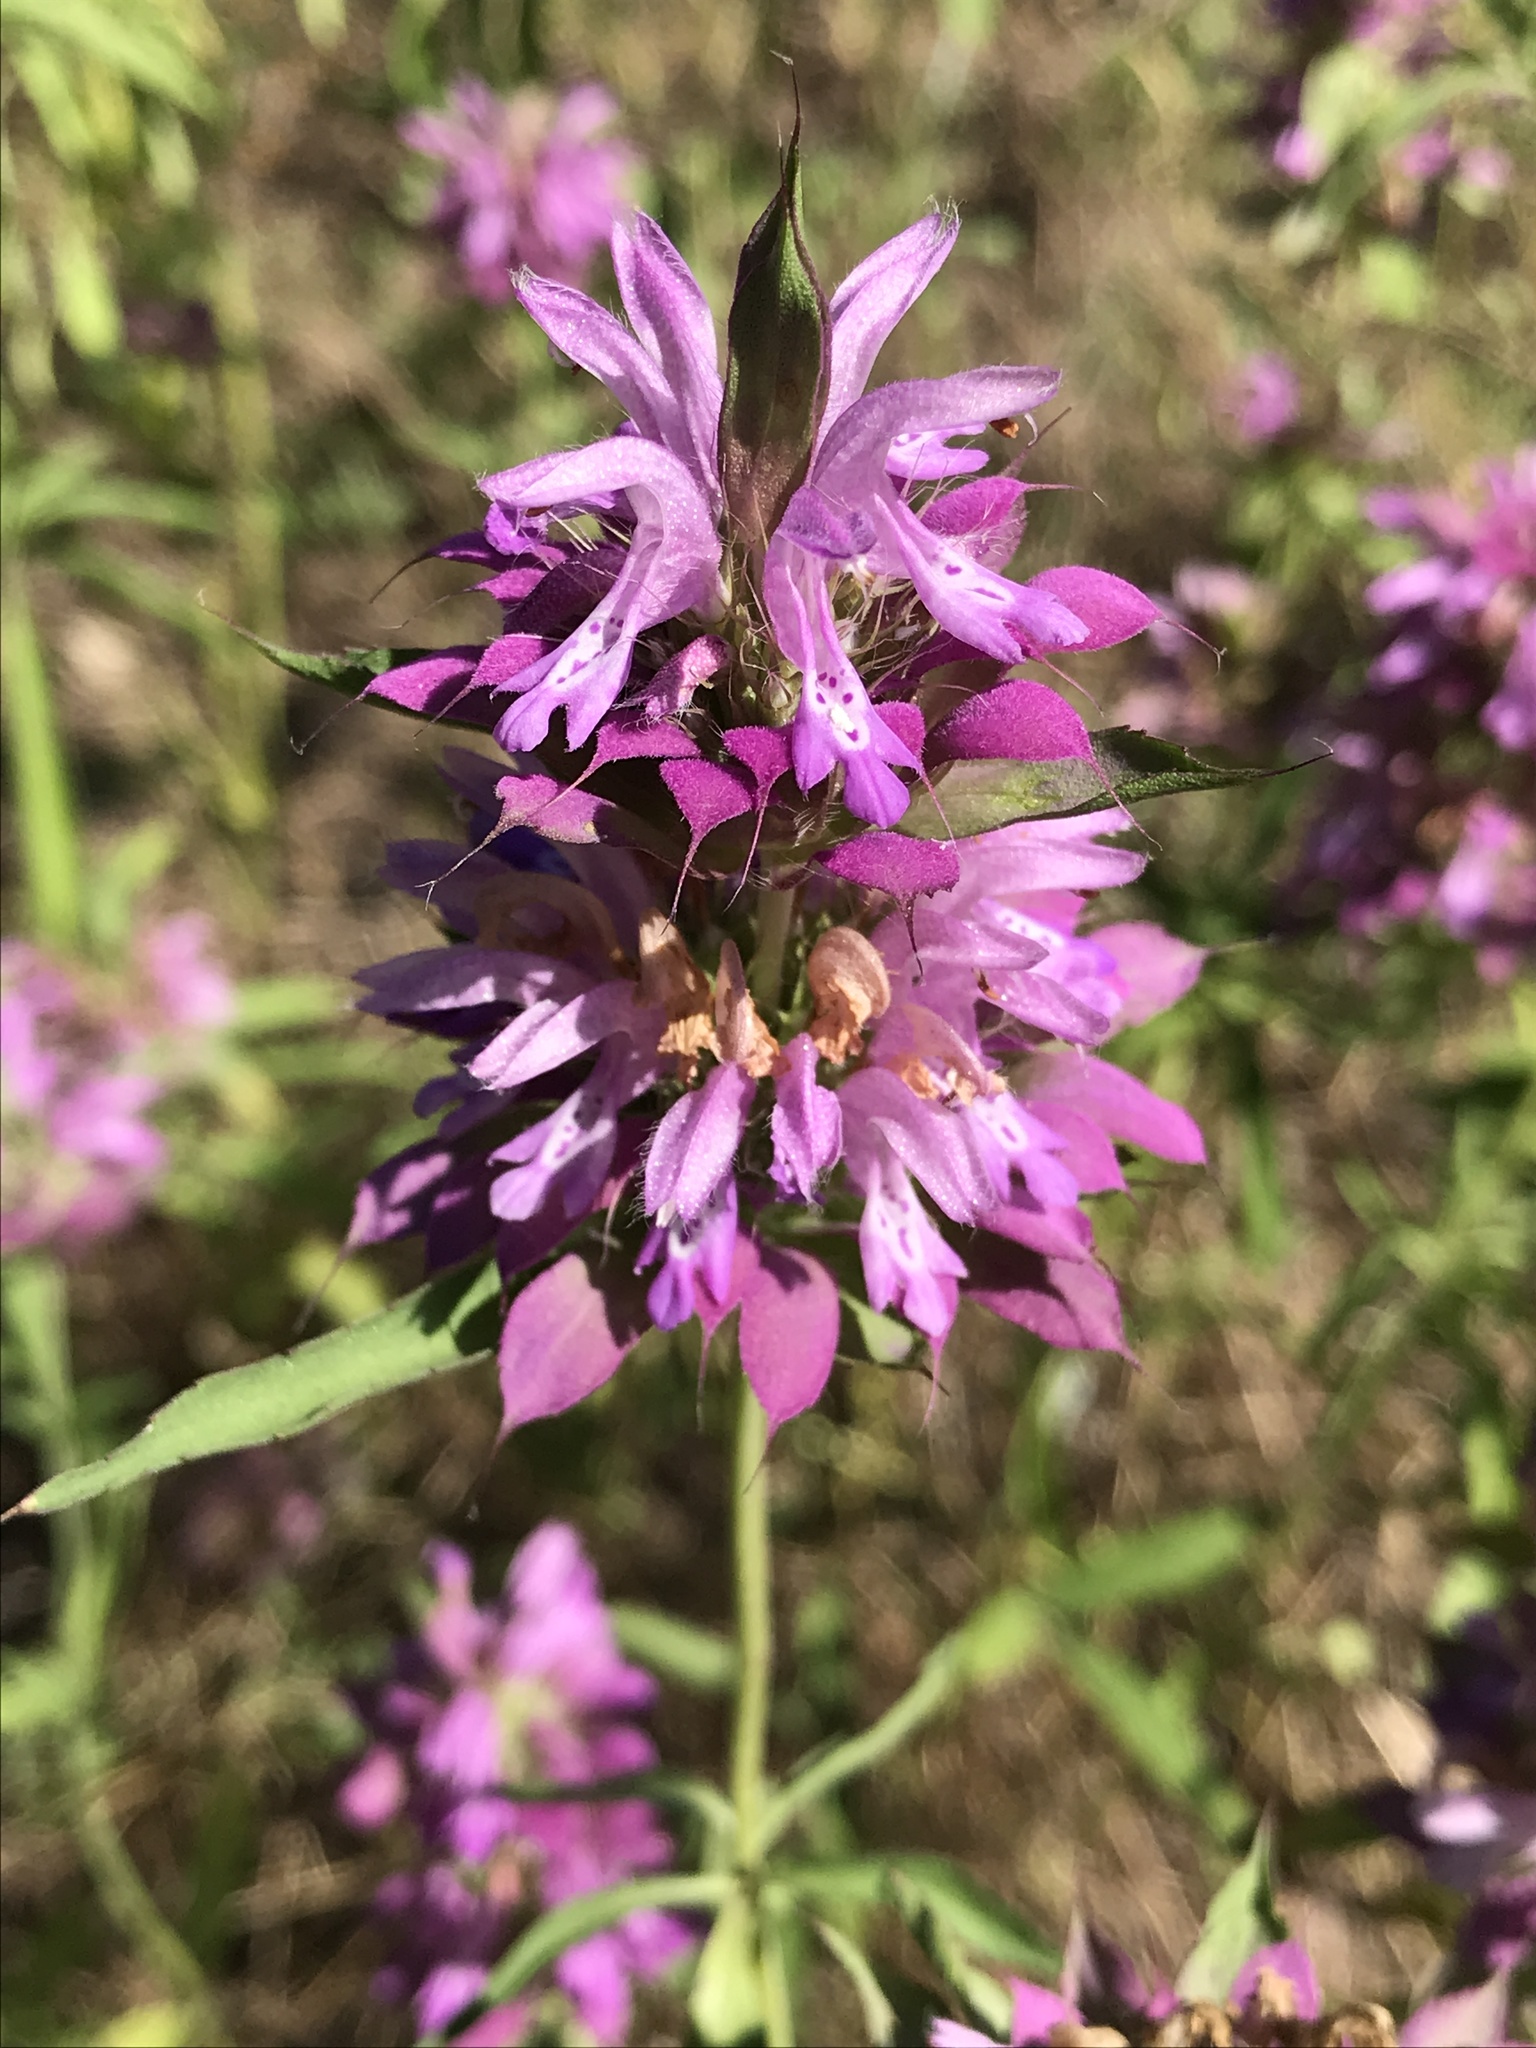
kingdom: Plantae
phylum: Tracheophyta
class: Magnoliopsida
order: Lamiales
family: Lamiaceae
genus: Monarda
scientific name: Monarda citriodora
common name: Lemon beebalm
